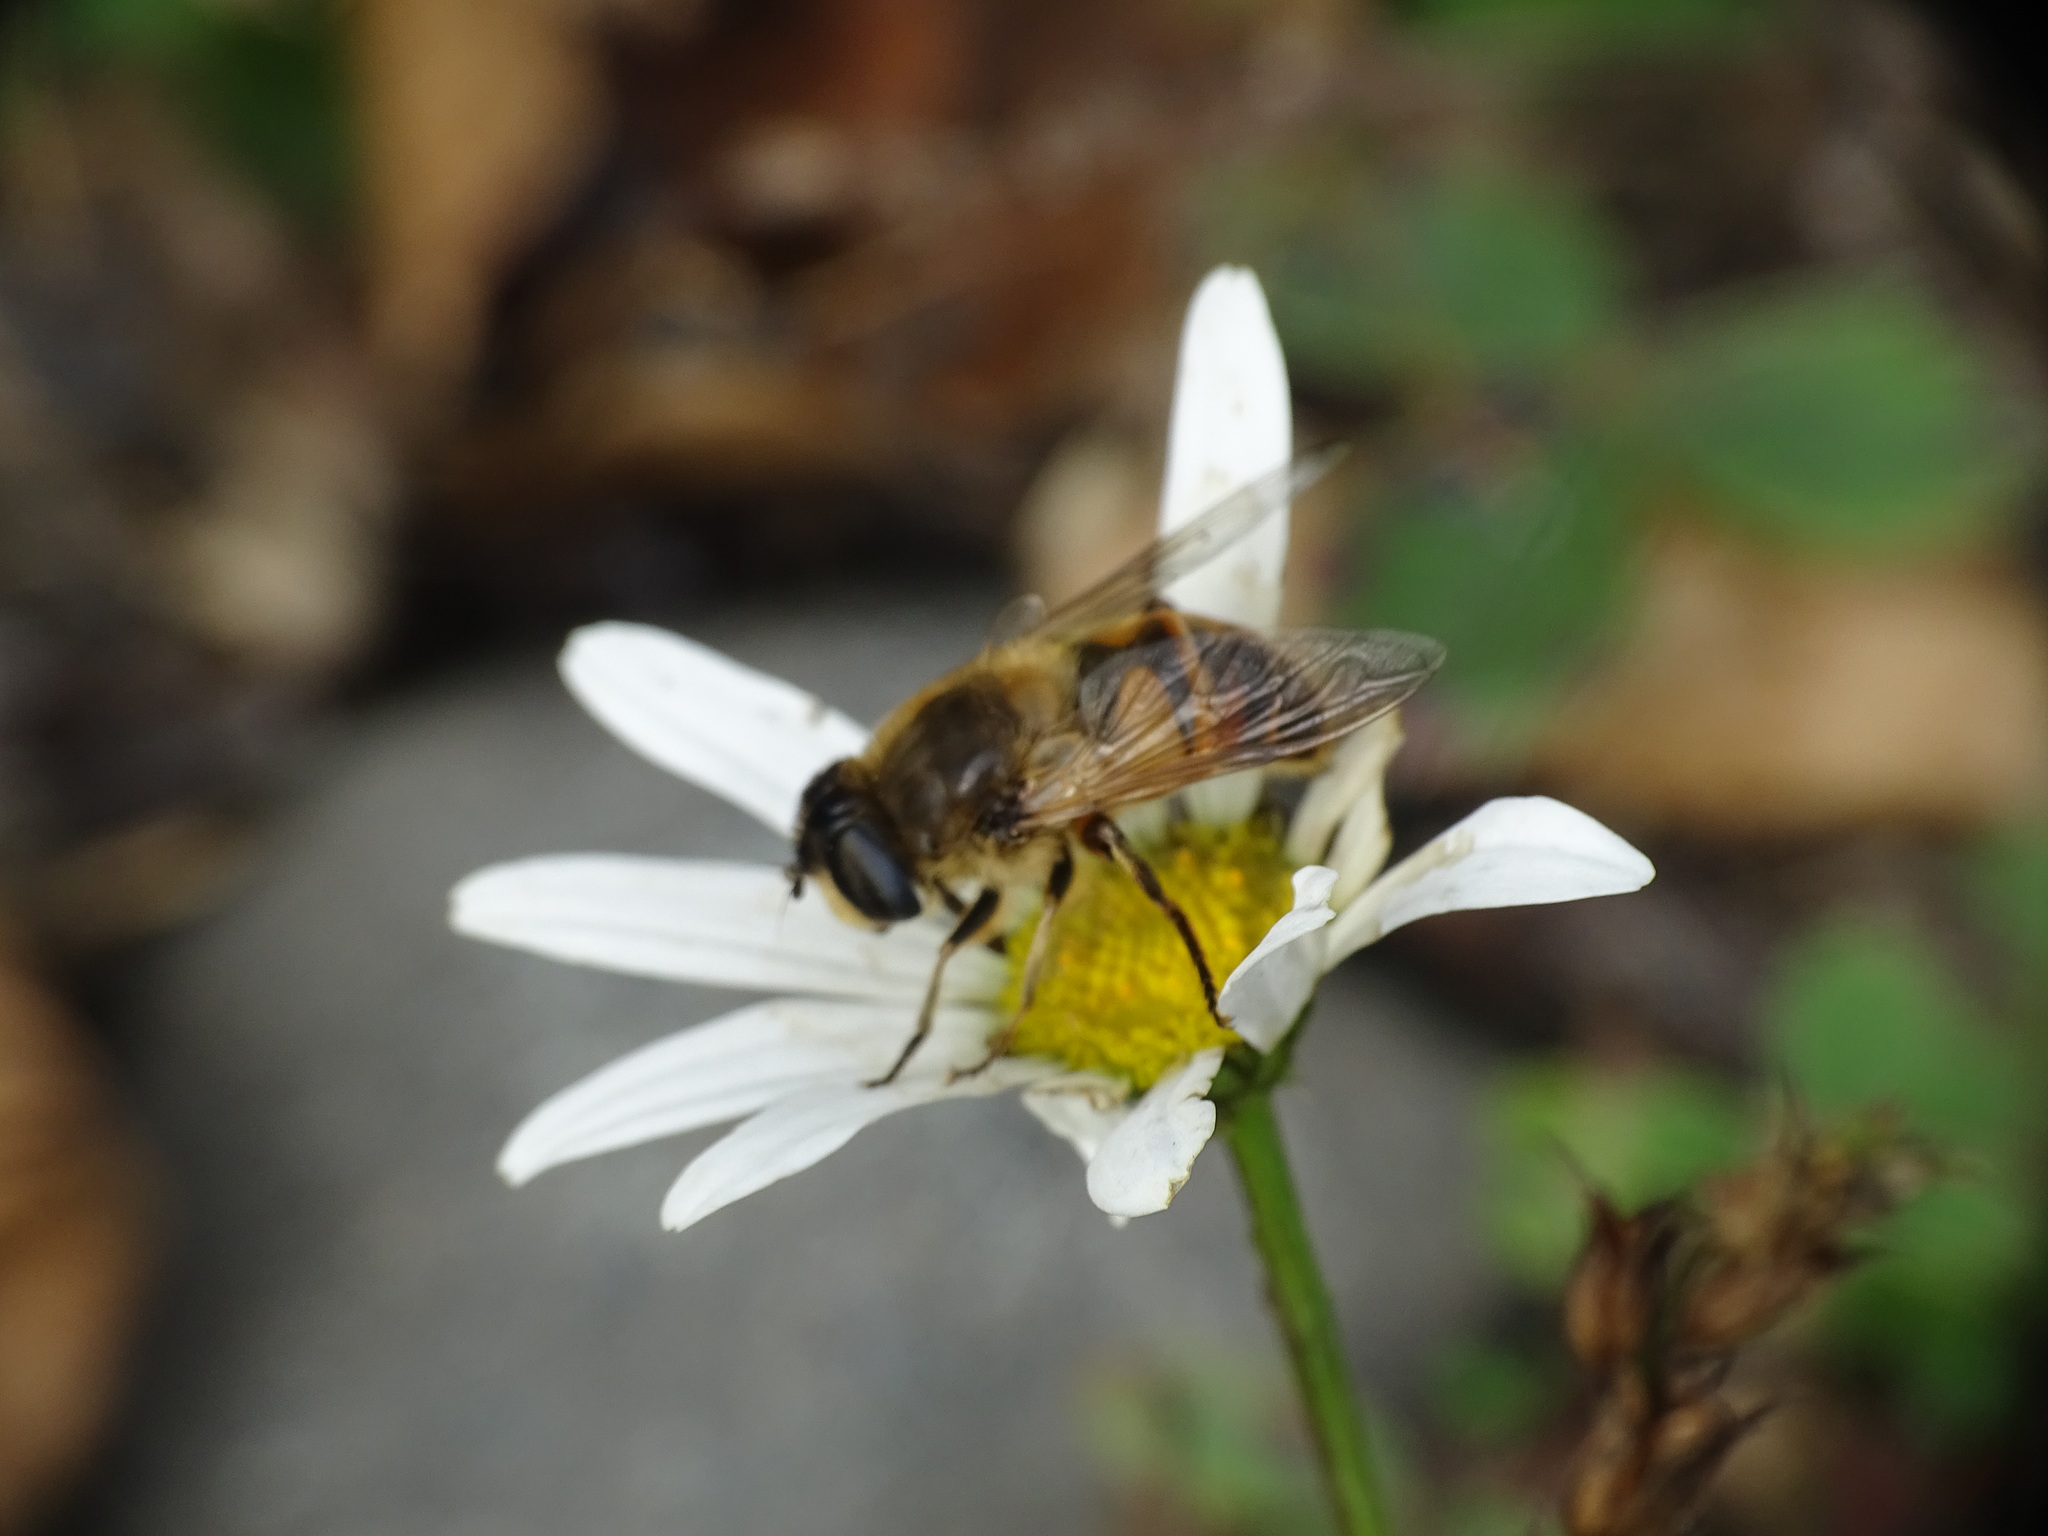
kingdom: Animalia
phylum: Arthropoda
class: Insecta
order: Diptera
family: Syrphidae
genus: Eristalis
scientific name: Eristalis tenax
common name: Drone fly
